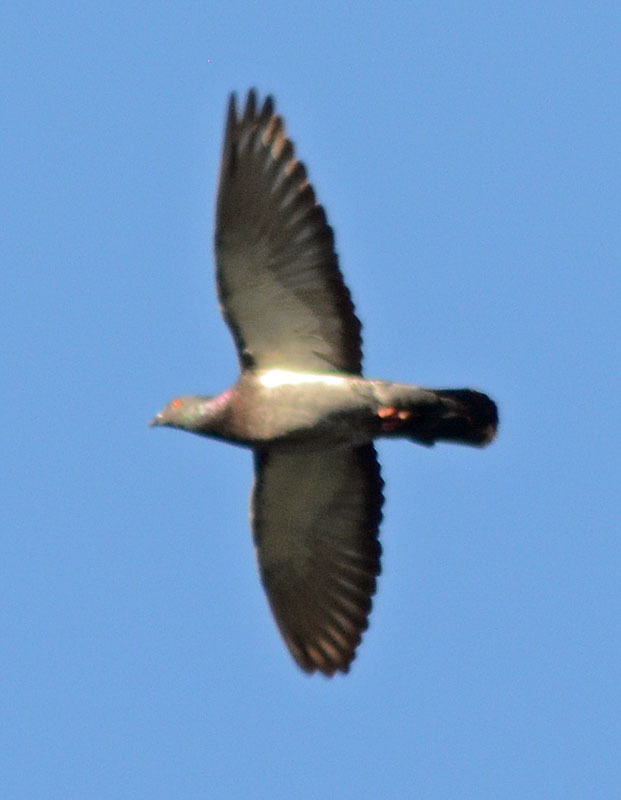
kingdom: Animalia
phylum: Chordata
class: Aves
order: Columbiformes
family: Columbidae
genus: Columba
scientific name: Columba livia
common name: Rock pigeon
